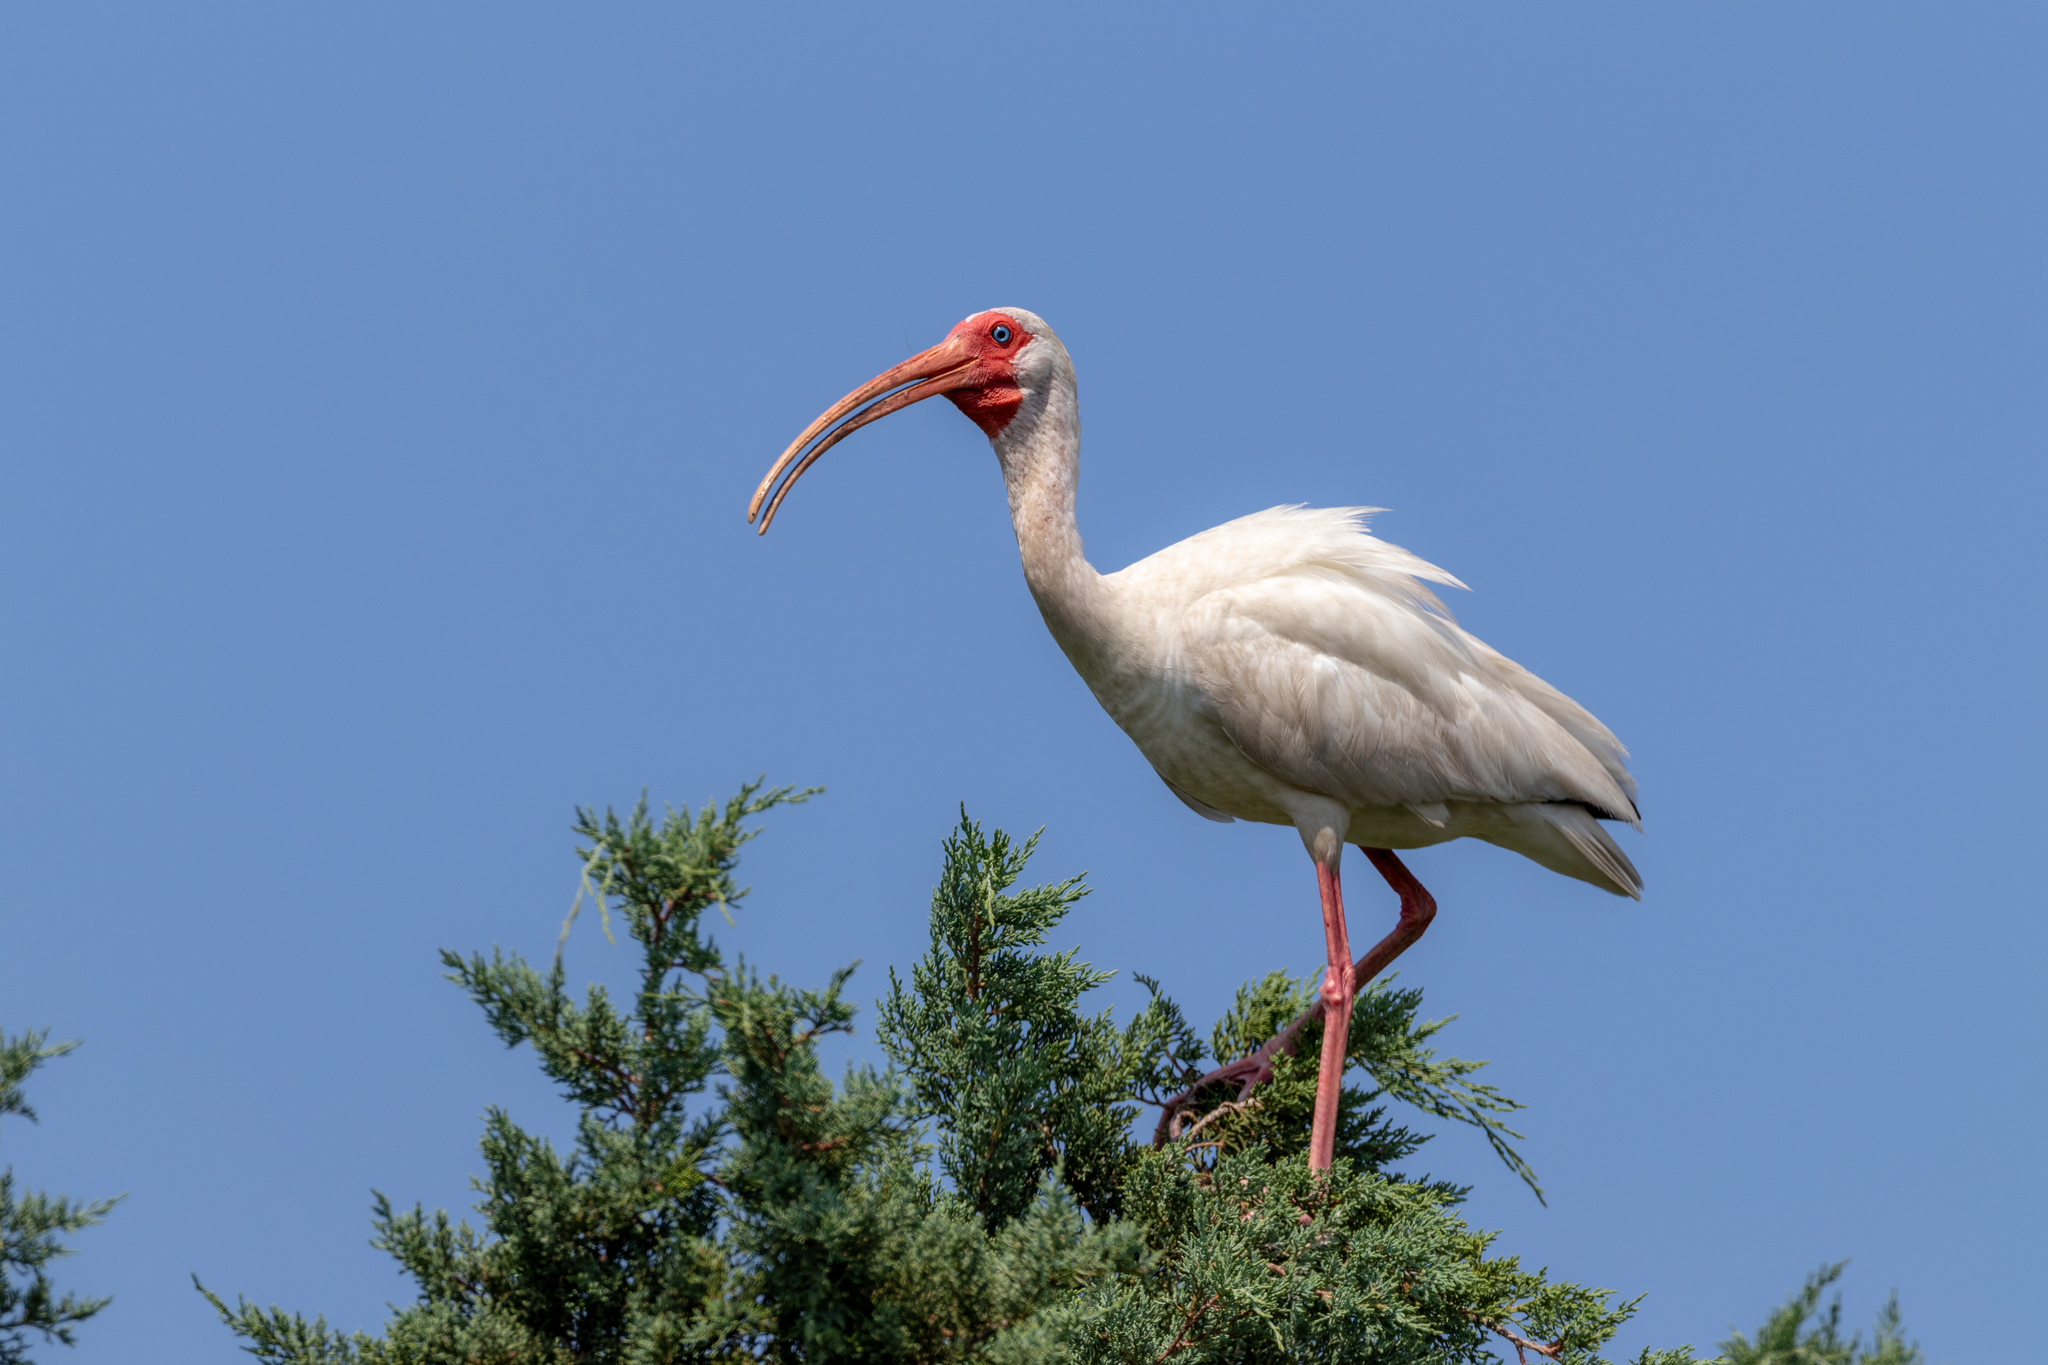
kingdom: Animalia
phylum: Chordata
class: Aves
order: Pelecaniformes
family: Threskiornithidae
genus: Eudocimus
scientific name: Eudocimus albus
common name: White ibis
